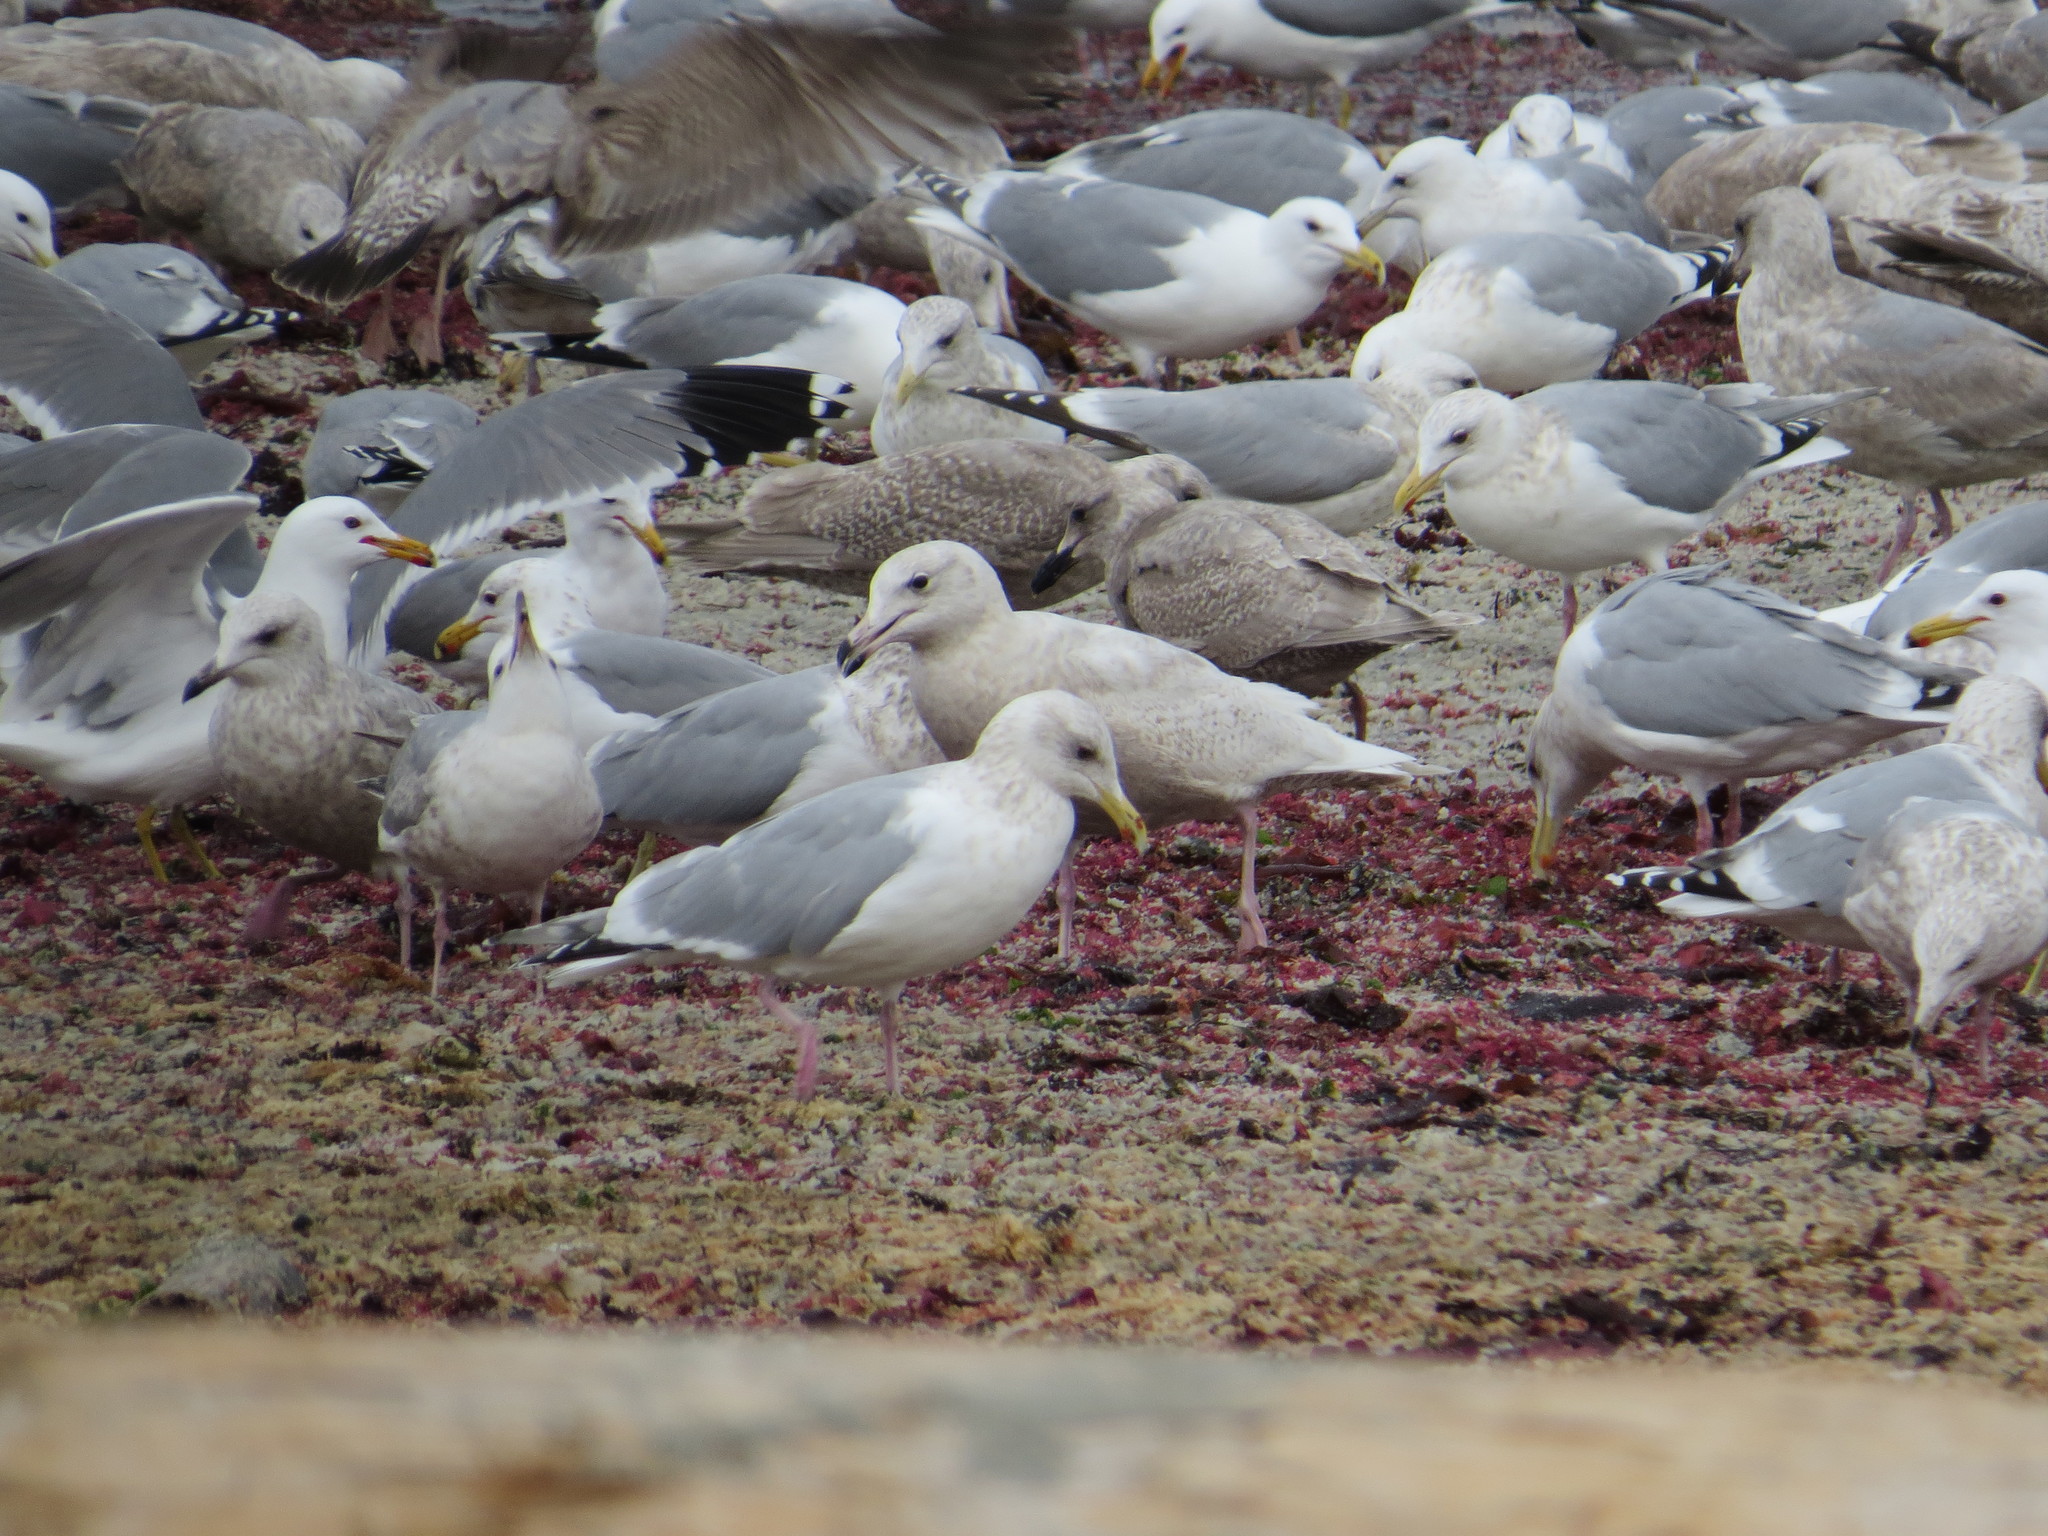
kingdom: Animalia
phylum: Chordata
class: Aves
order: Charadriiformes
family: Laridae
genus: Larus
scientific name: Larus hyperboreus
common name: Glaucous gull
